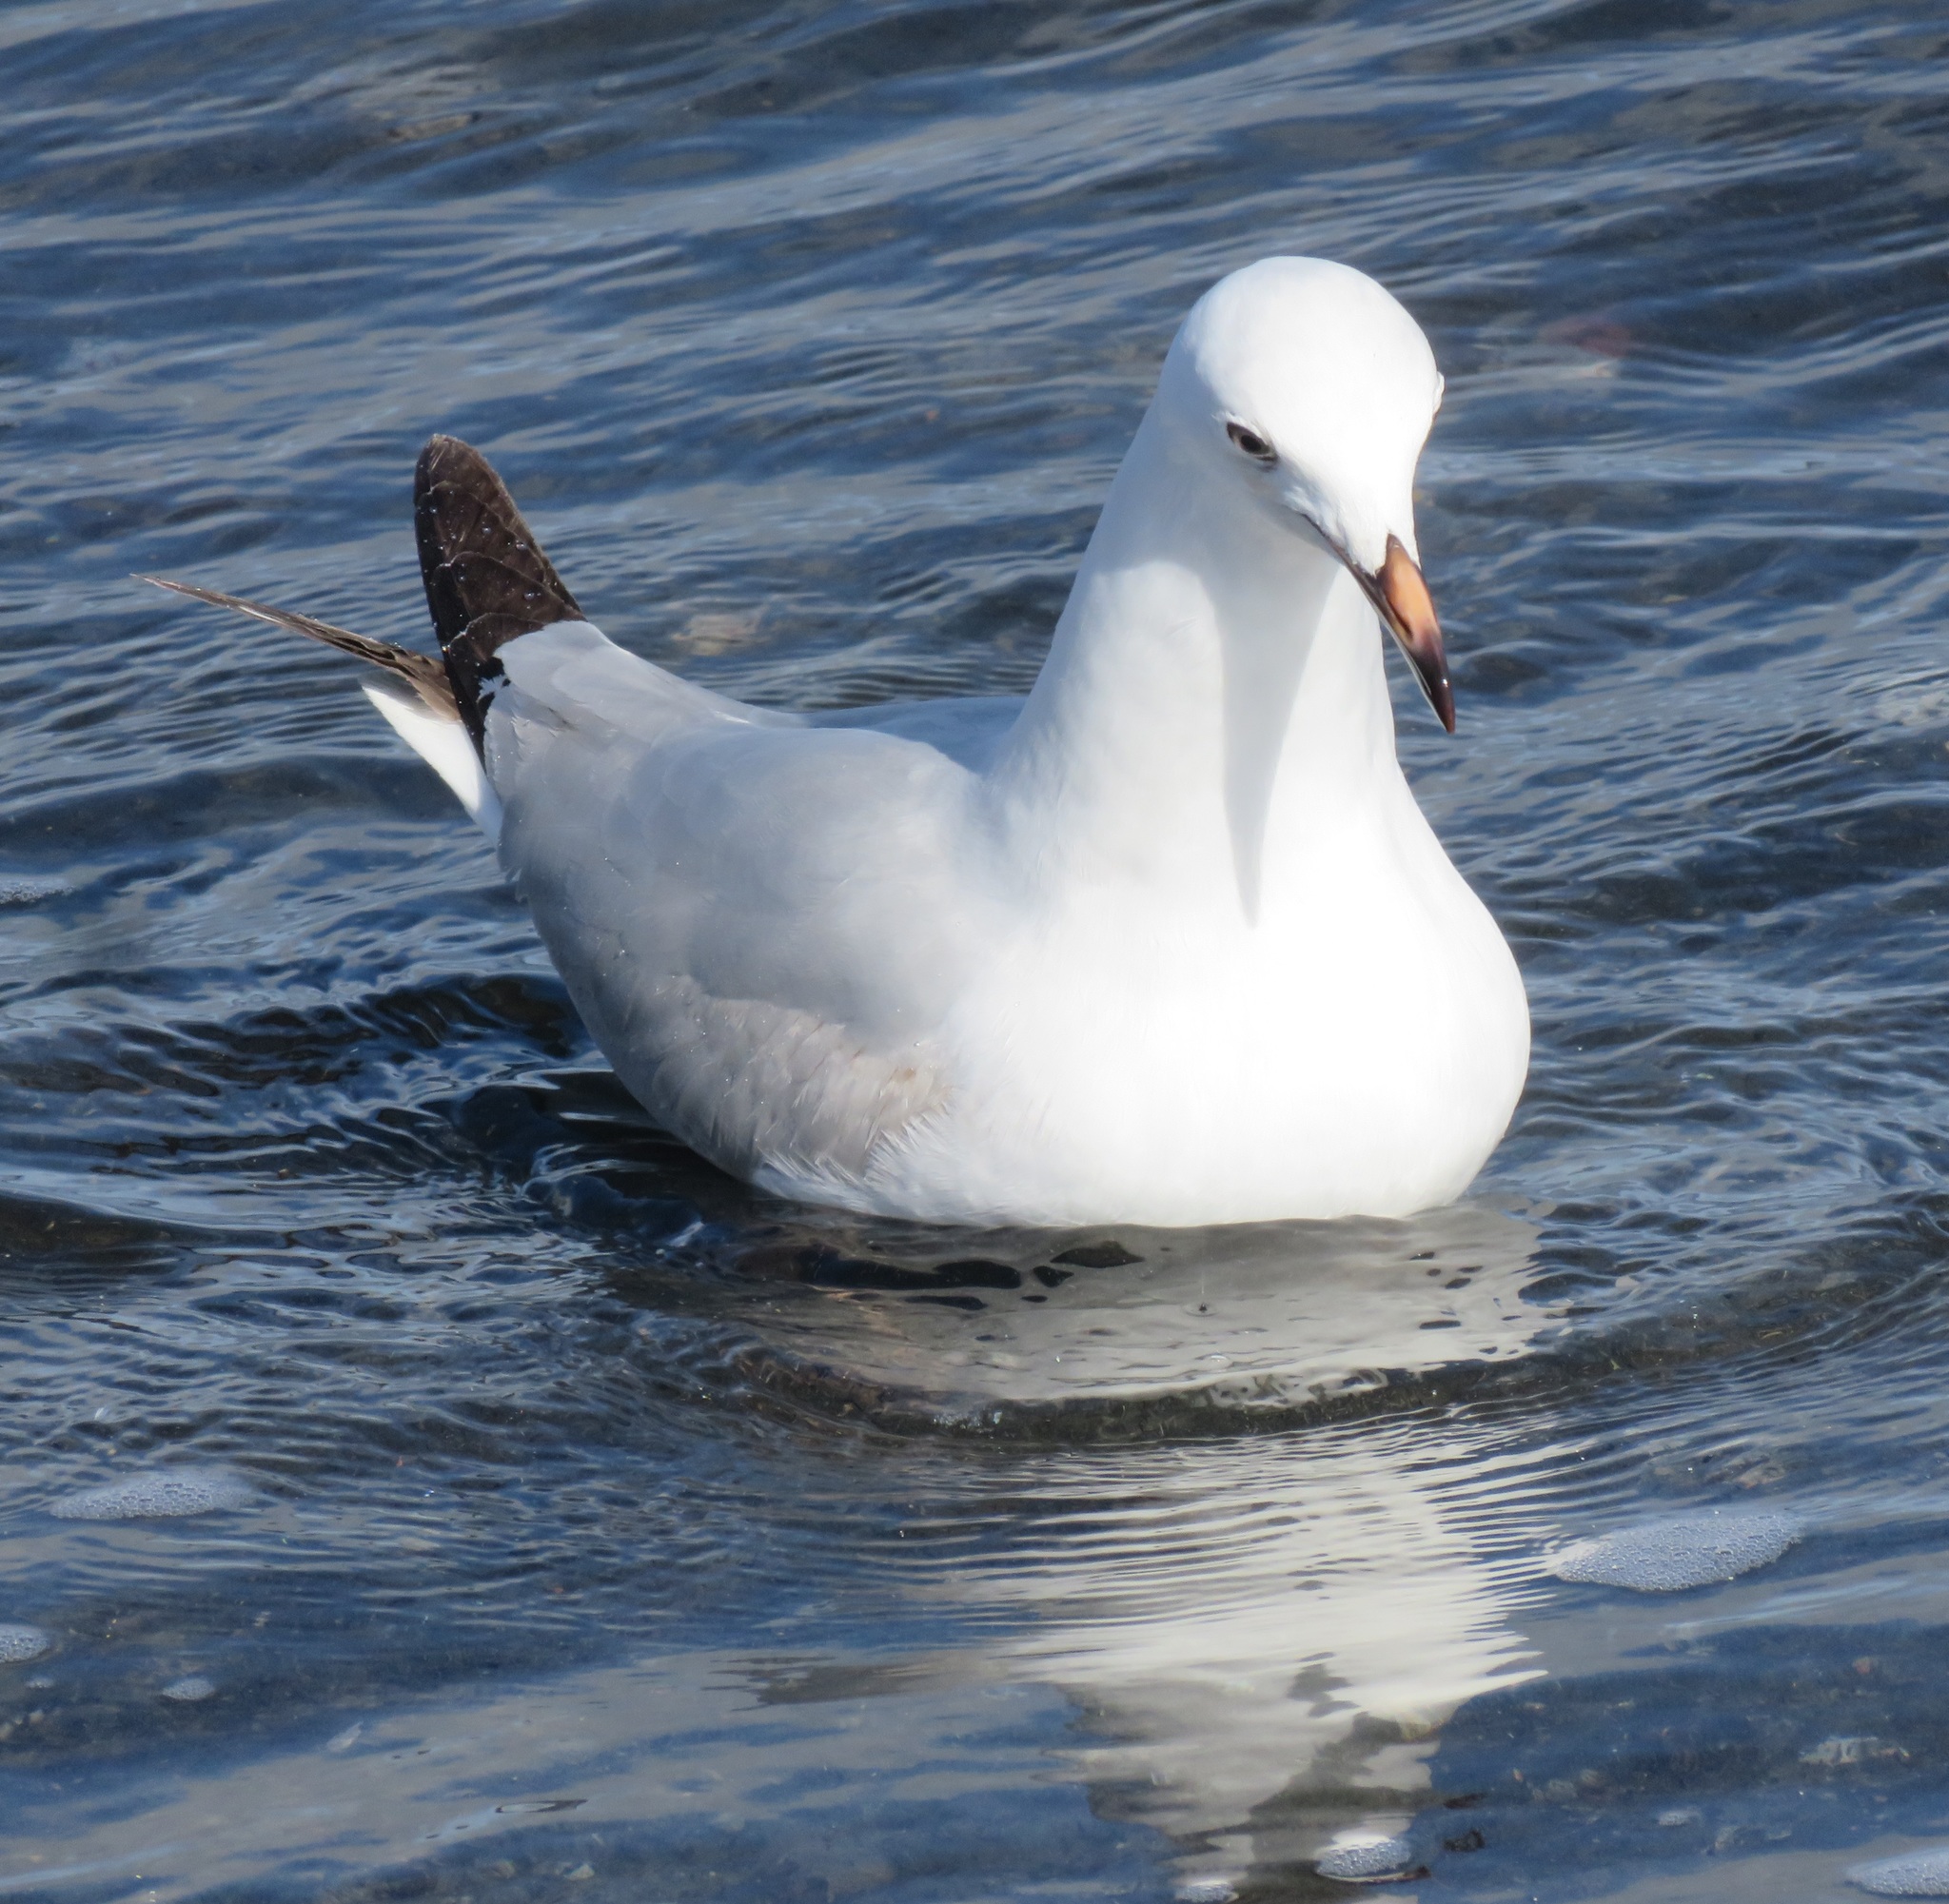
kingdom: Animalia
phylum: Chordata
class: Aves
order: Charadriiformes
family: Laridae
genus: Chroicocephalus
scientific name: Chroicocephalus novaehollandiae
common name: Silver gull
